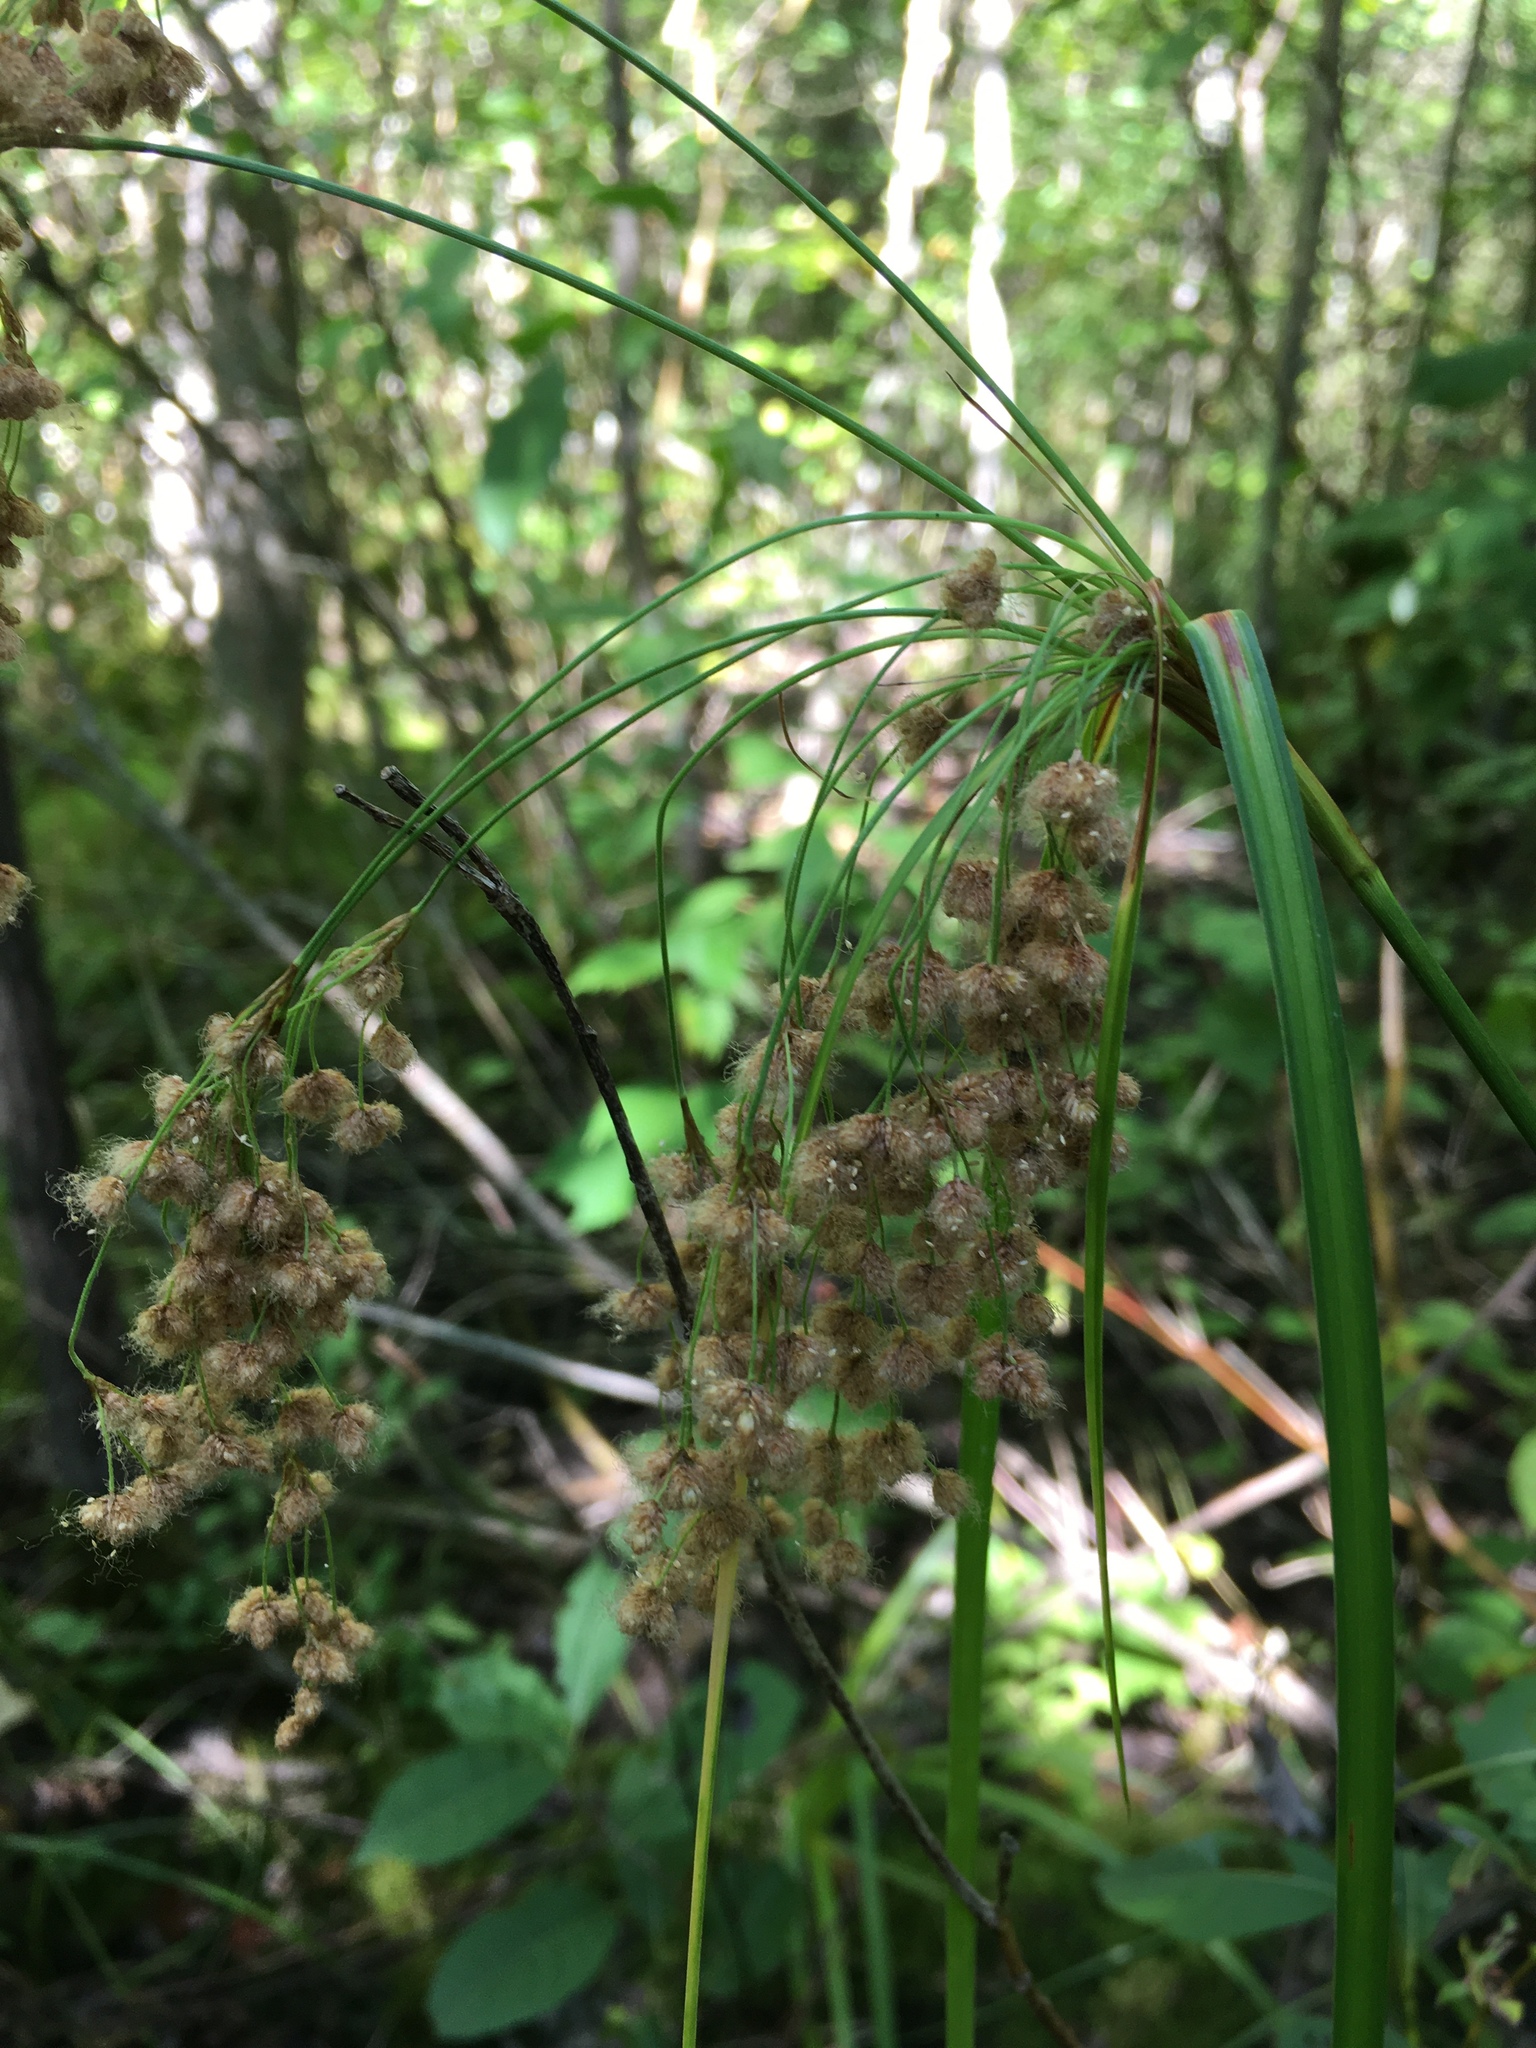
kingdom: Plantae
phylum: Tracheophyta
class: Liliopsida
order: Poales
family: Cyperaceae
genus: Scirpus
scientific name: Scirpus cyperinus
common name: Black-sheathed bulrush
